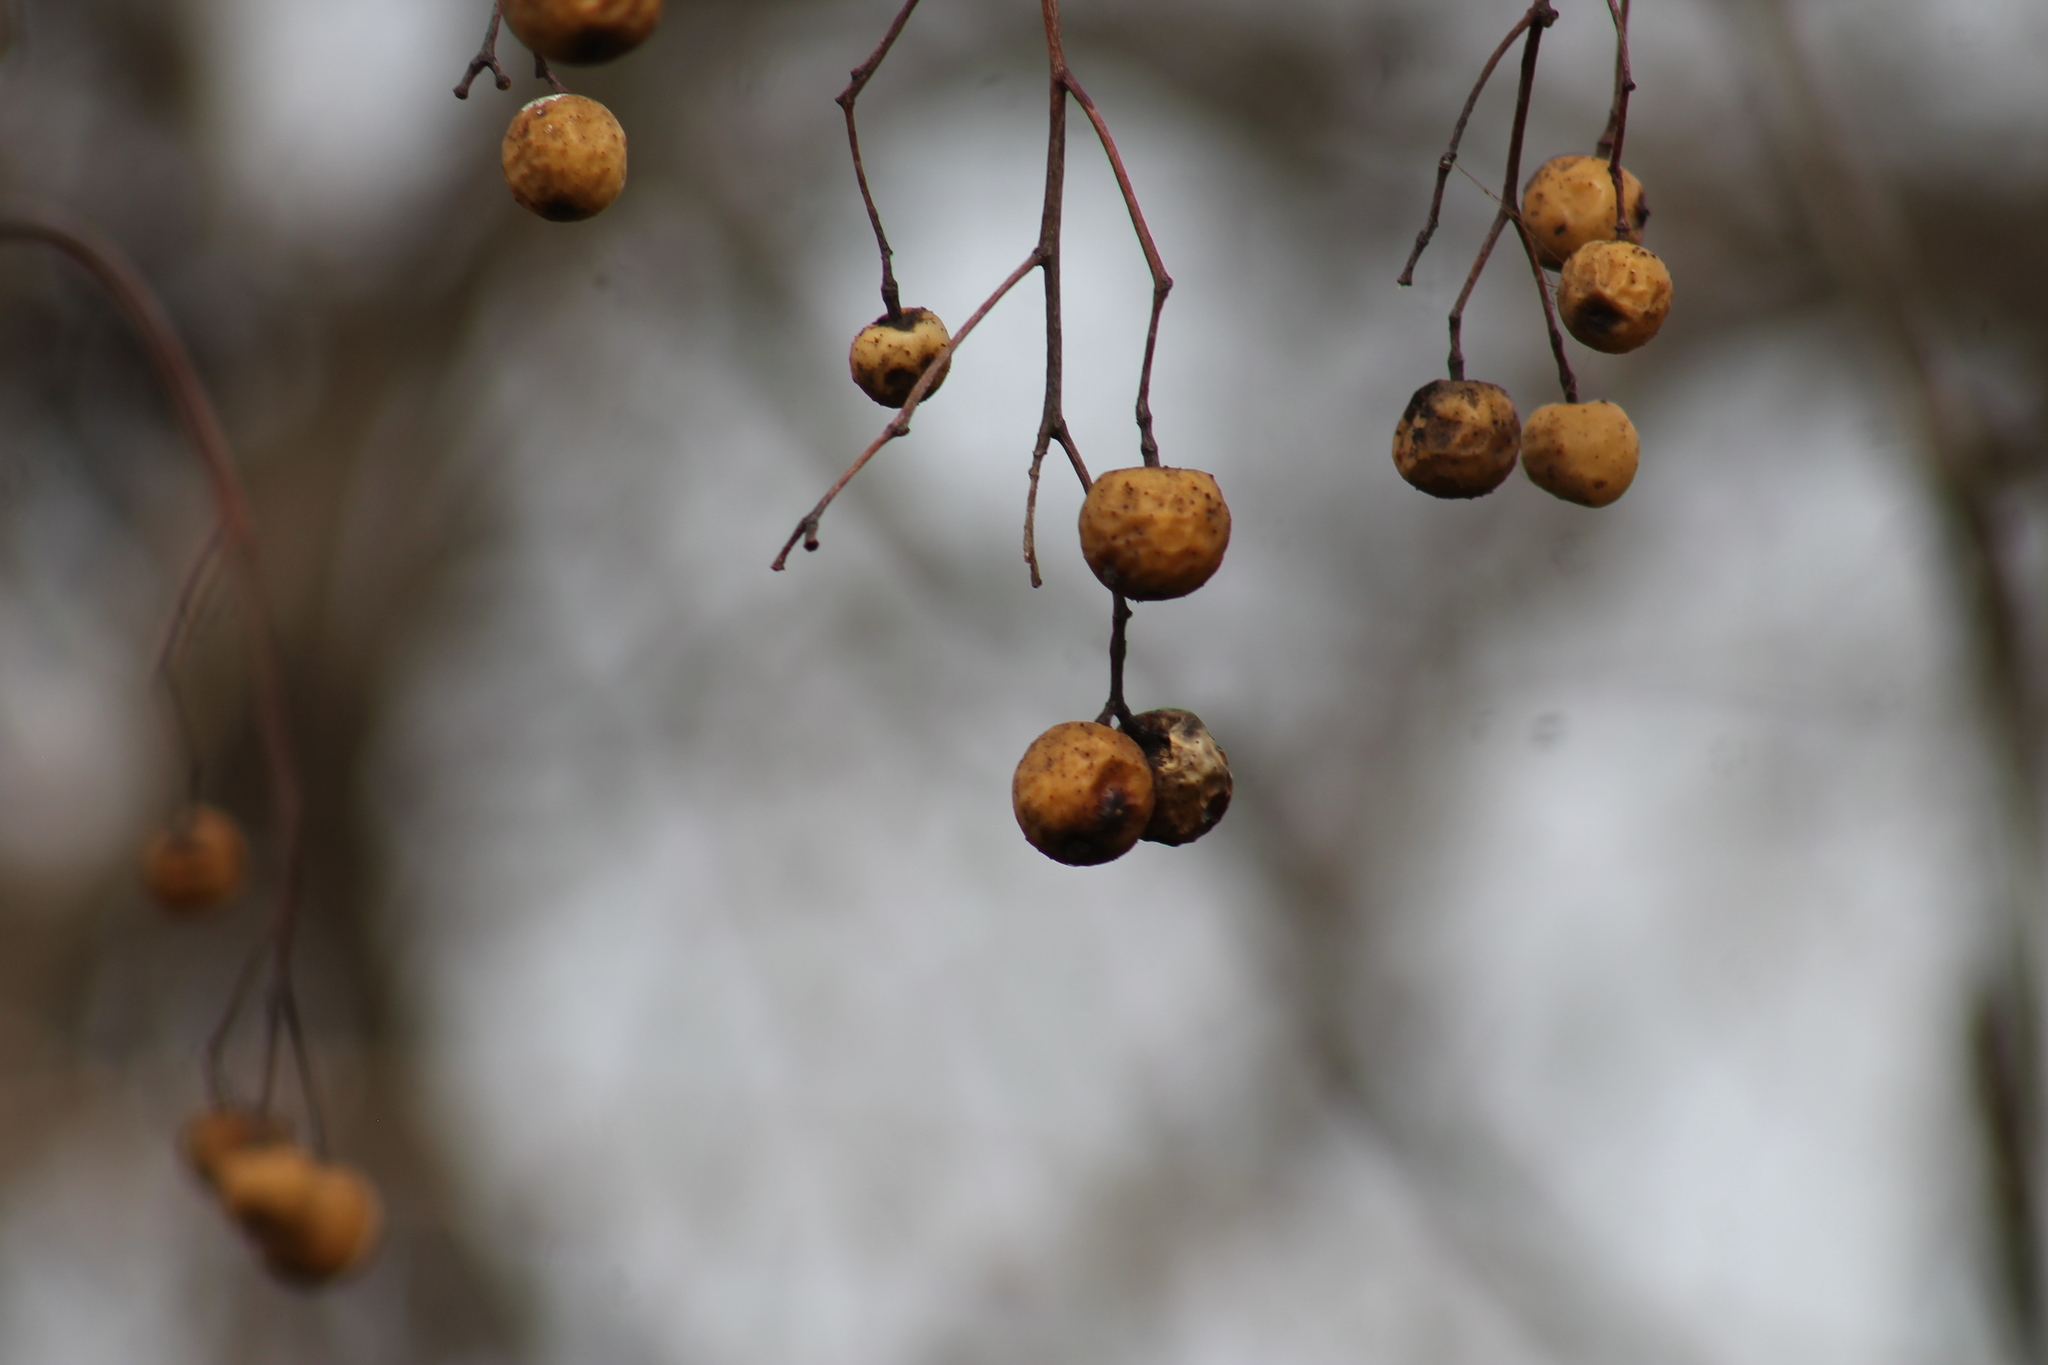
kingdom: Plantae
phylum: Tracheophyta
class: Magnoliopsida
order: Sapindales
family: Meliaceae
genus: Melia
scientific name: Melia azedarach
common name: Chinaberrytree
